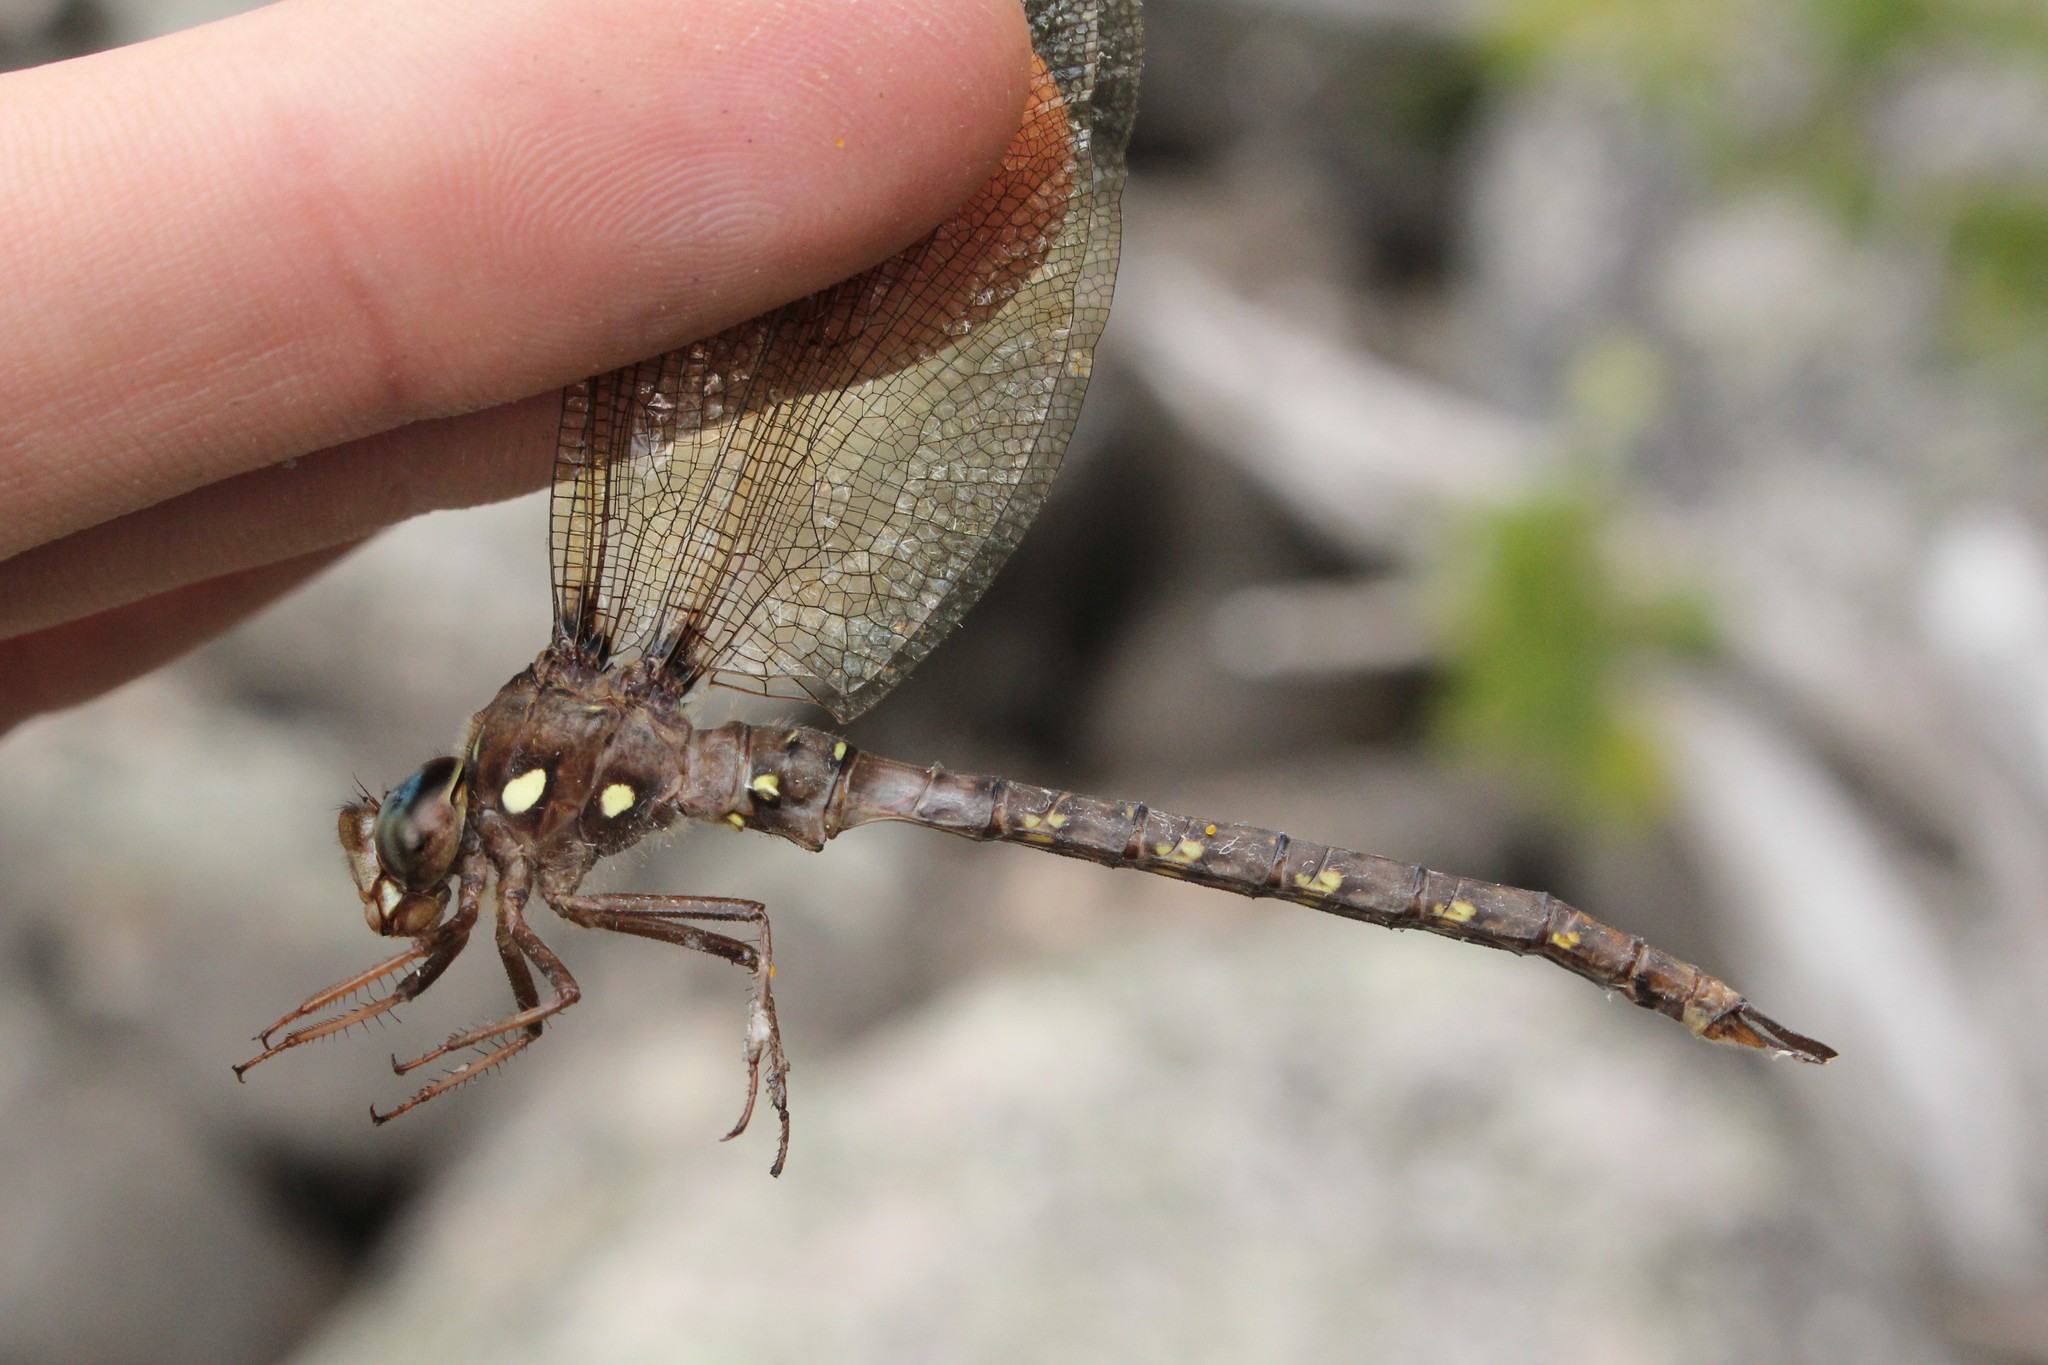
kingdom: Animalia
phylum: Arthropoda
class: Insecta
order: Odonata
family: Aeshnidae
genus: Boyeria
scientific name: Boyeria vinosa
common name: Fawn darner
